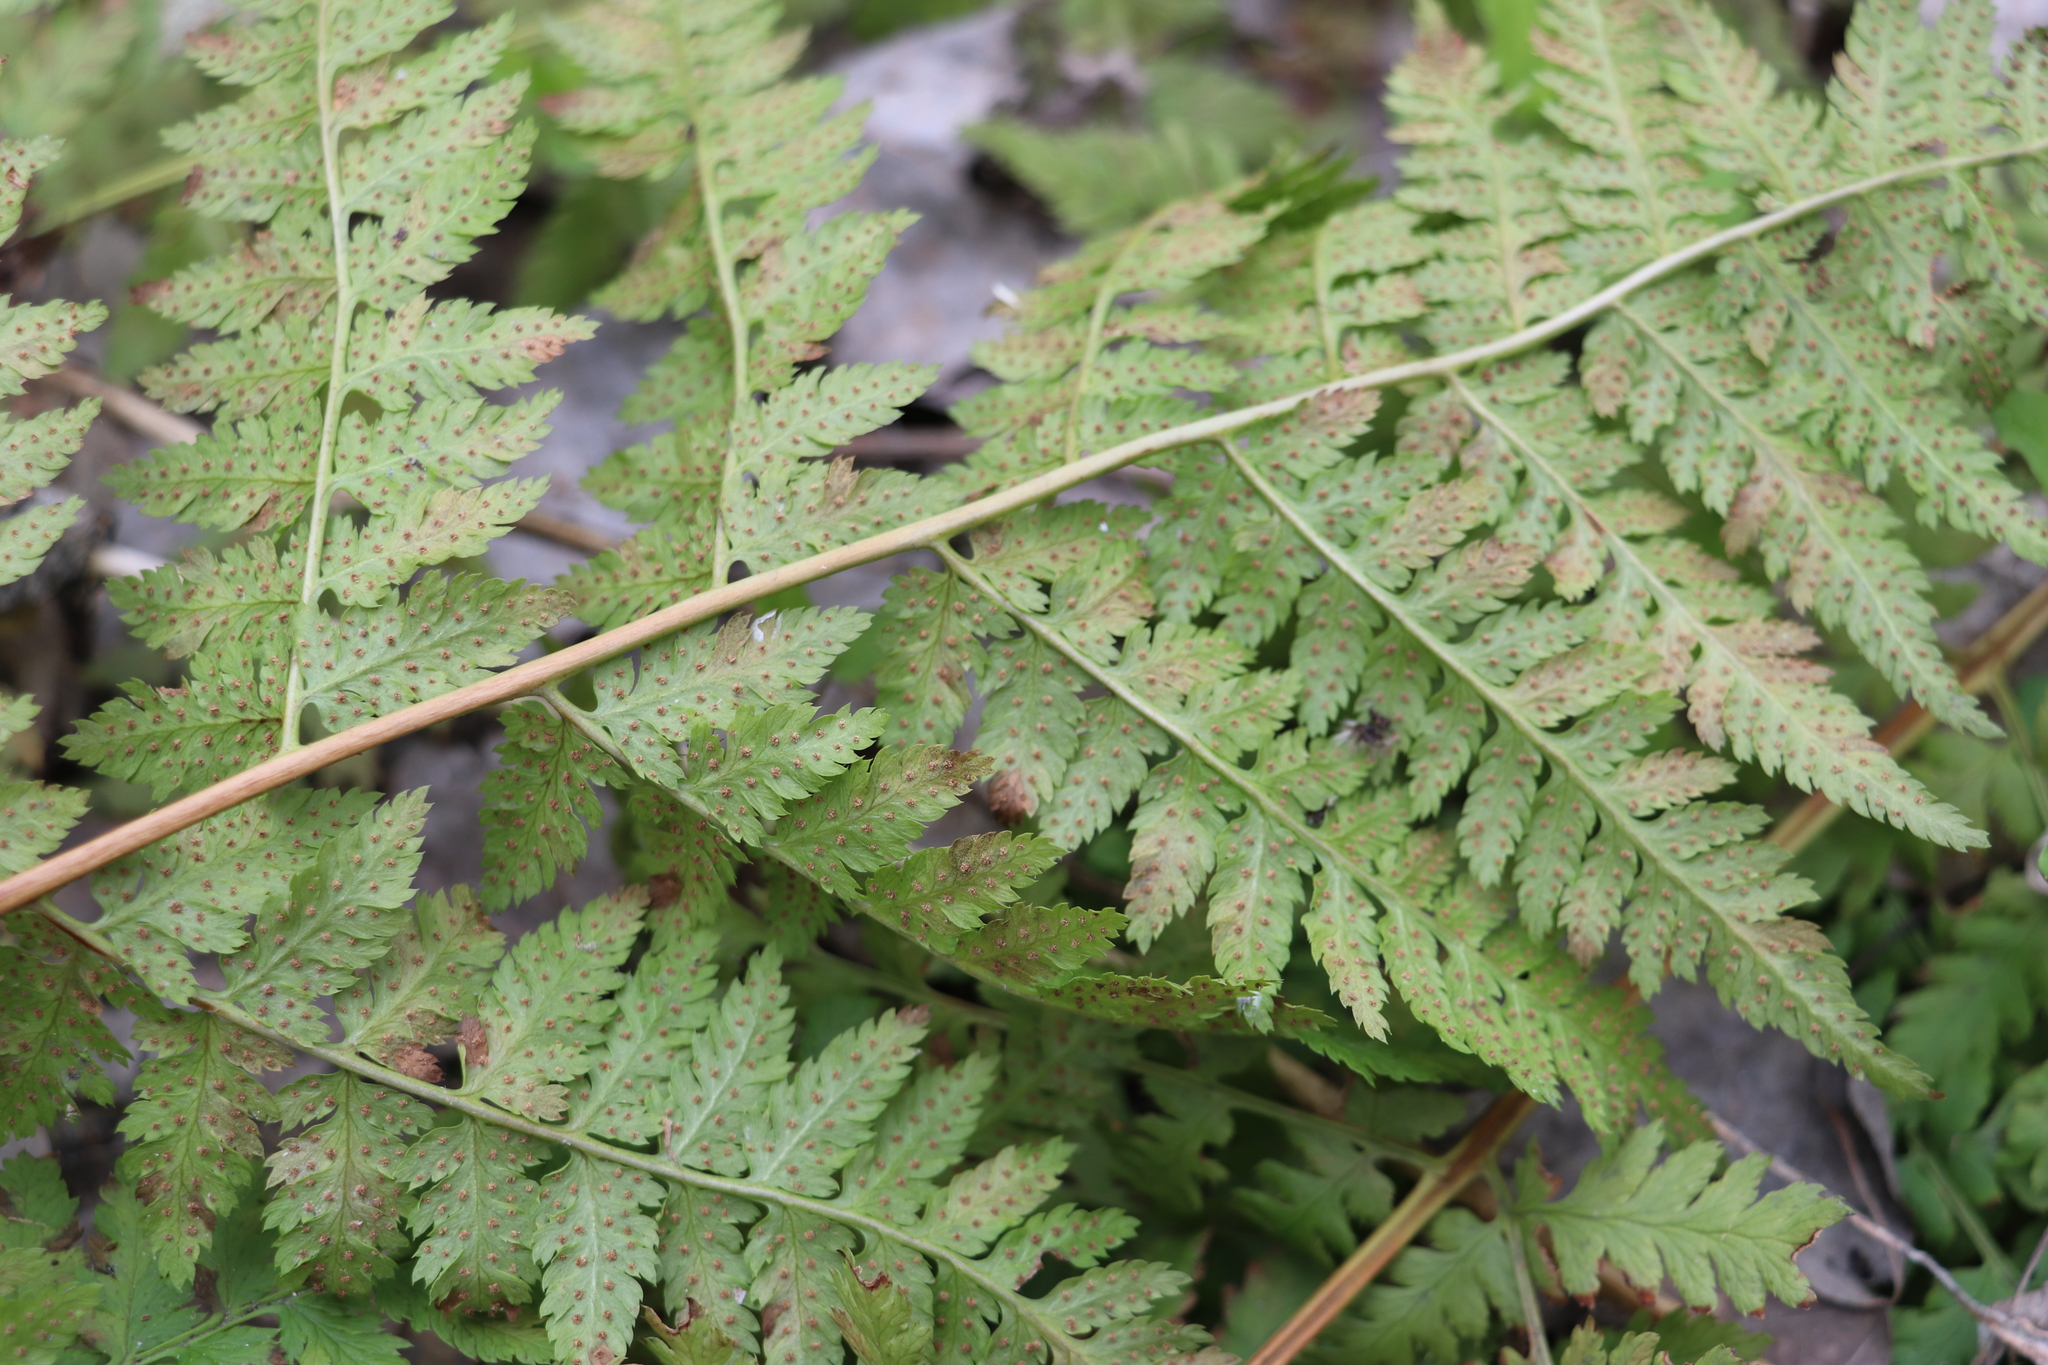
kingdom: Plantae
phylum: Tracheophyta
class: Polypodiopsida
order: Polypodiales
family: Dryopteridaceae
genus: Dryopteris
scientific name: Dryopteris carthusiana
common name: Narrow buckler-fern
